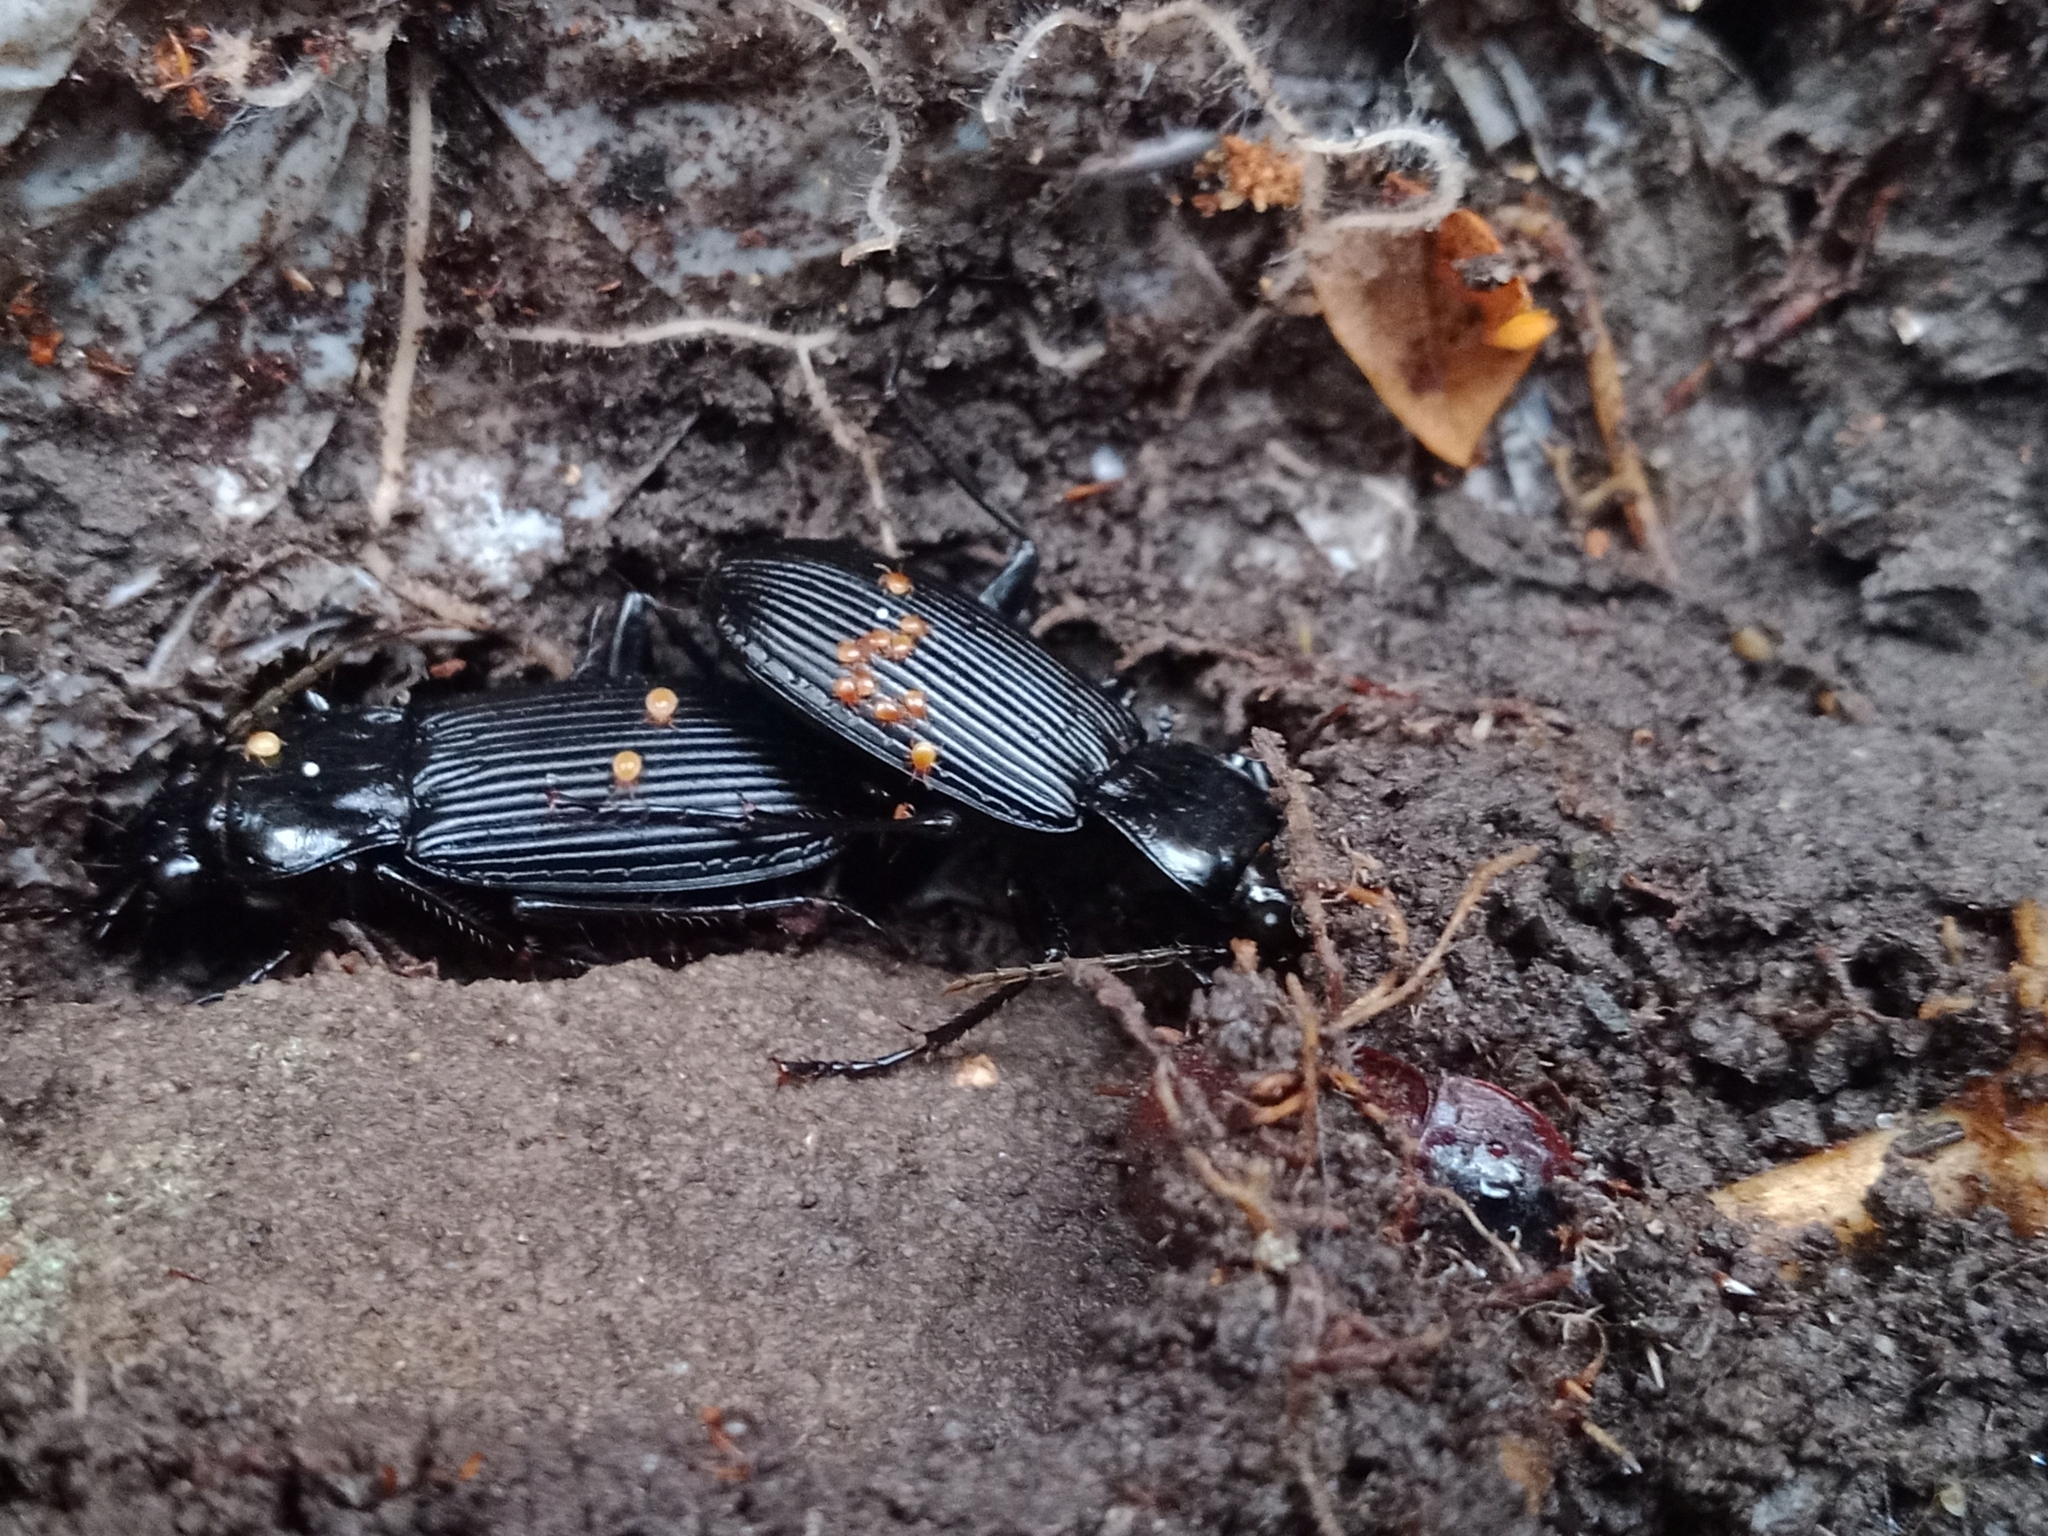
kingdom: Animalia
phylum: Arthropoda
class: Insecta
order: Coleoptera
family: Carabidae
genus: Pterostichus
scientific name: Pterostichus niger
